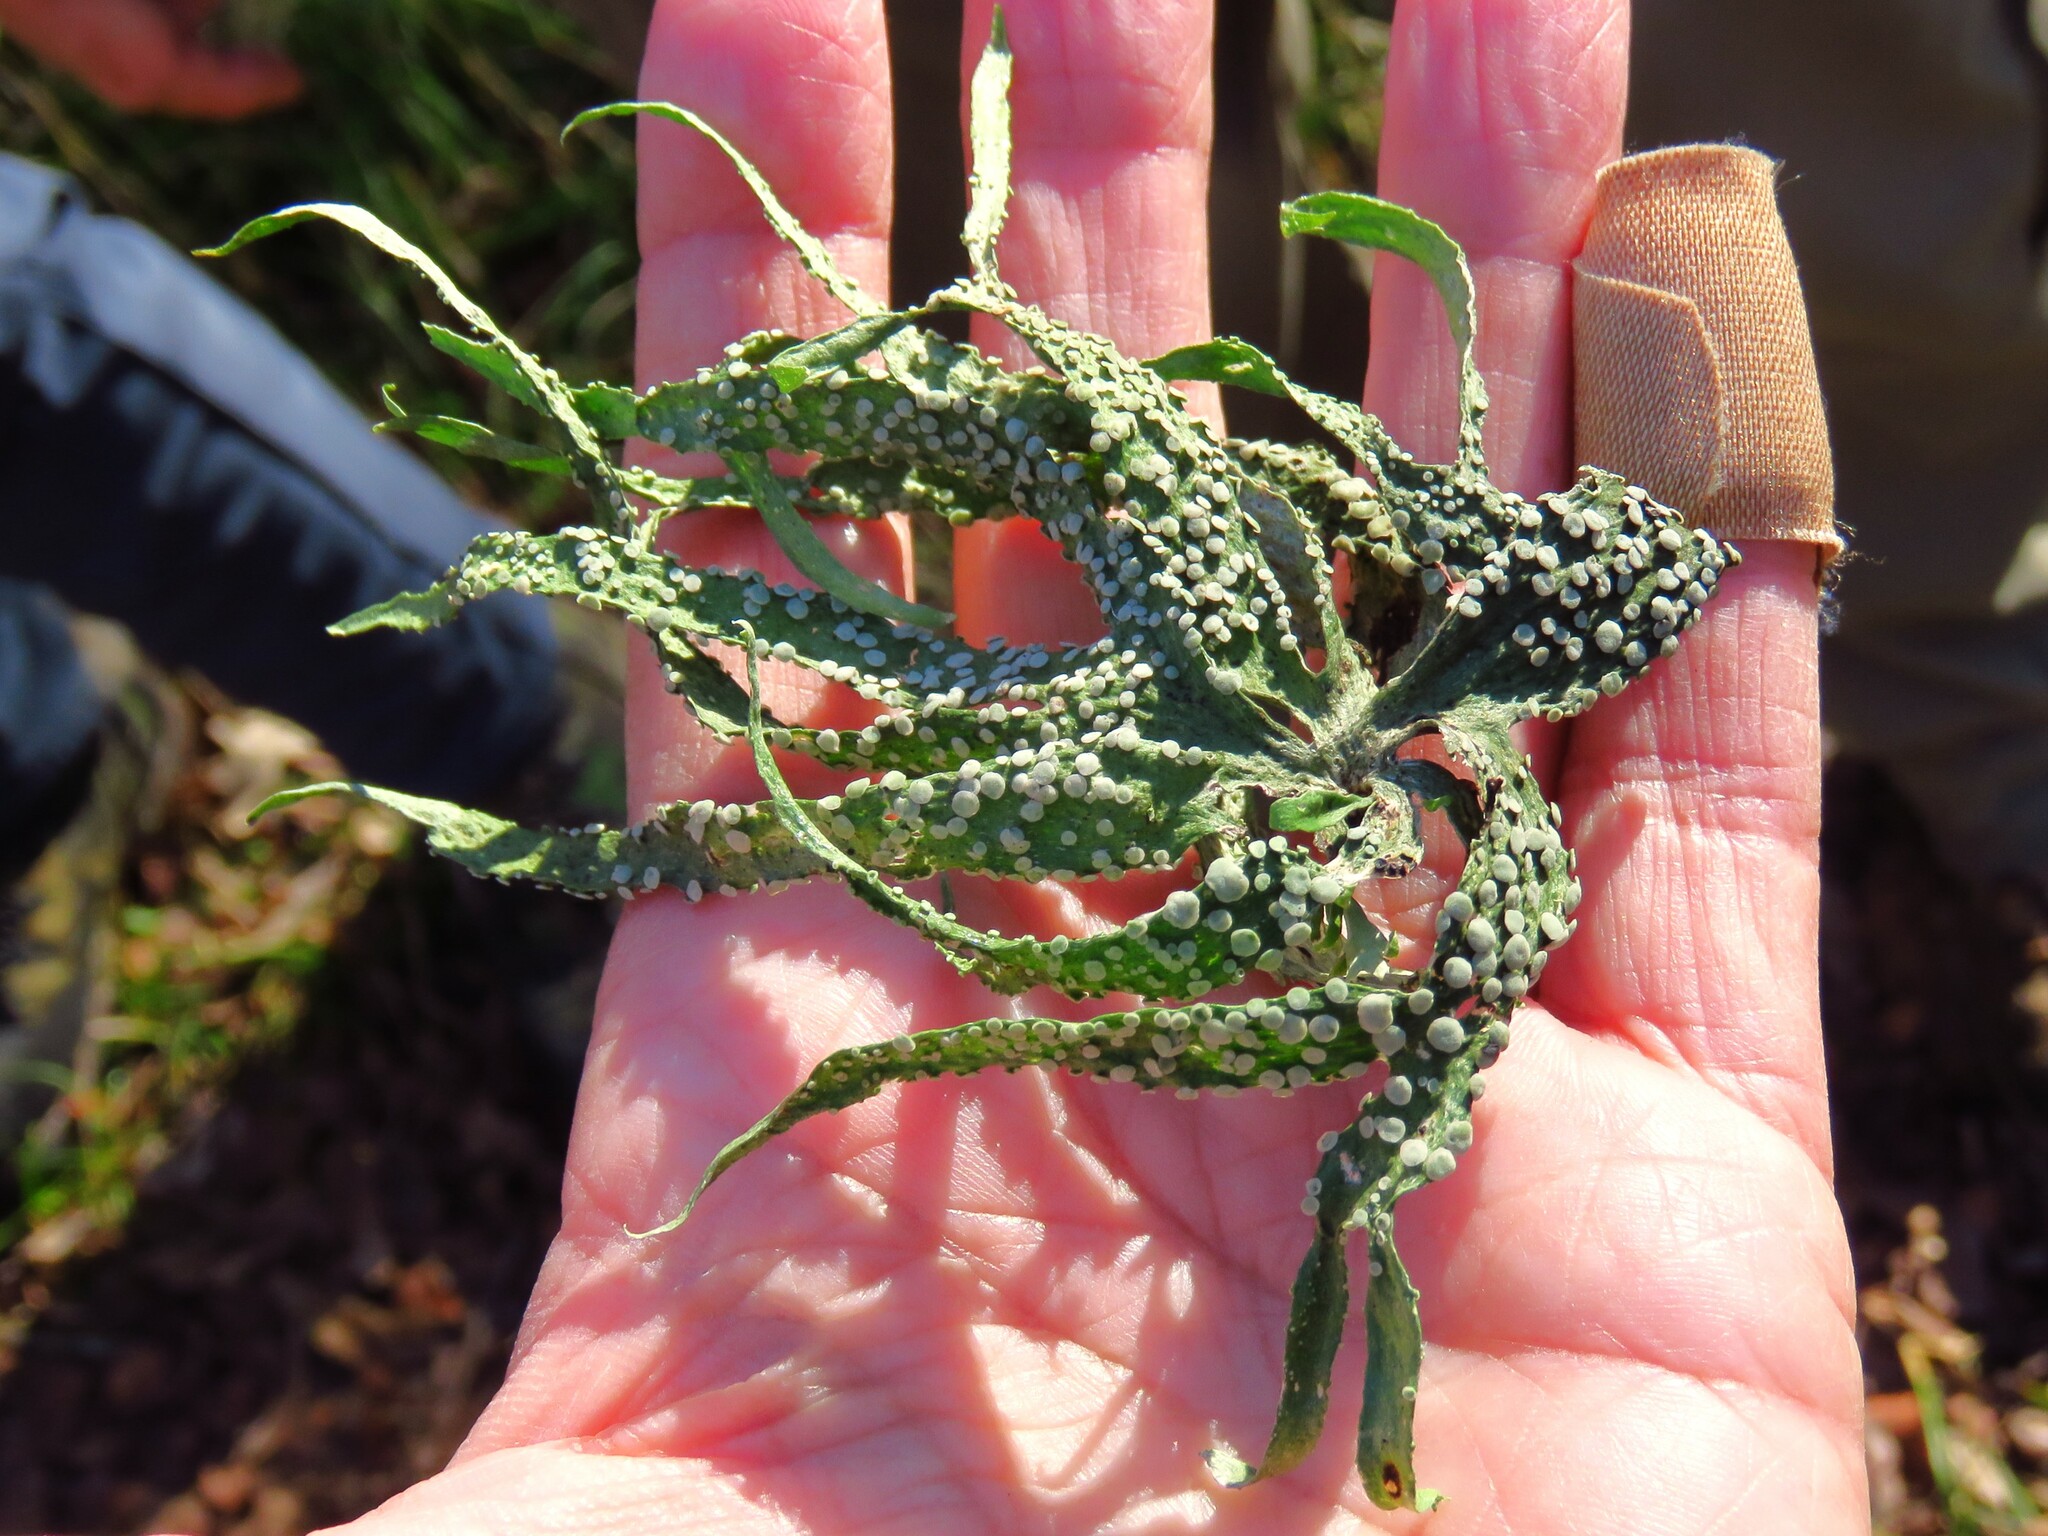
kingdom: Fungi
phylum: Ascomycota
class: Lecanoromycetes
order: Lecanorales
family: Ramalinaceae
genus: Ramalina
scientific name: Ramalina celastri
